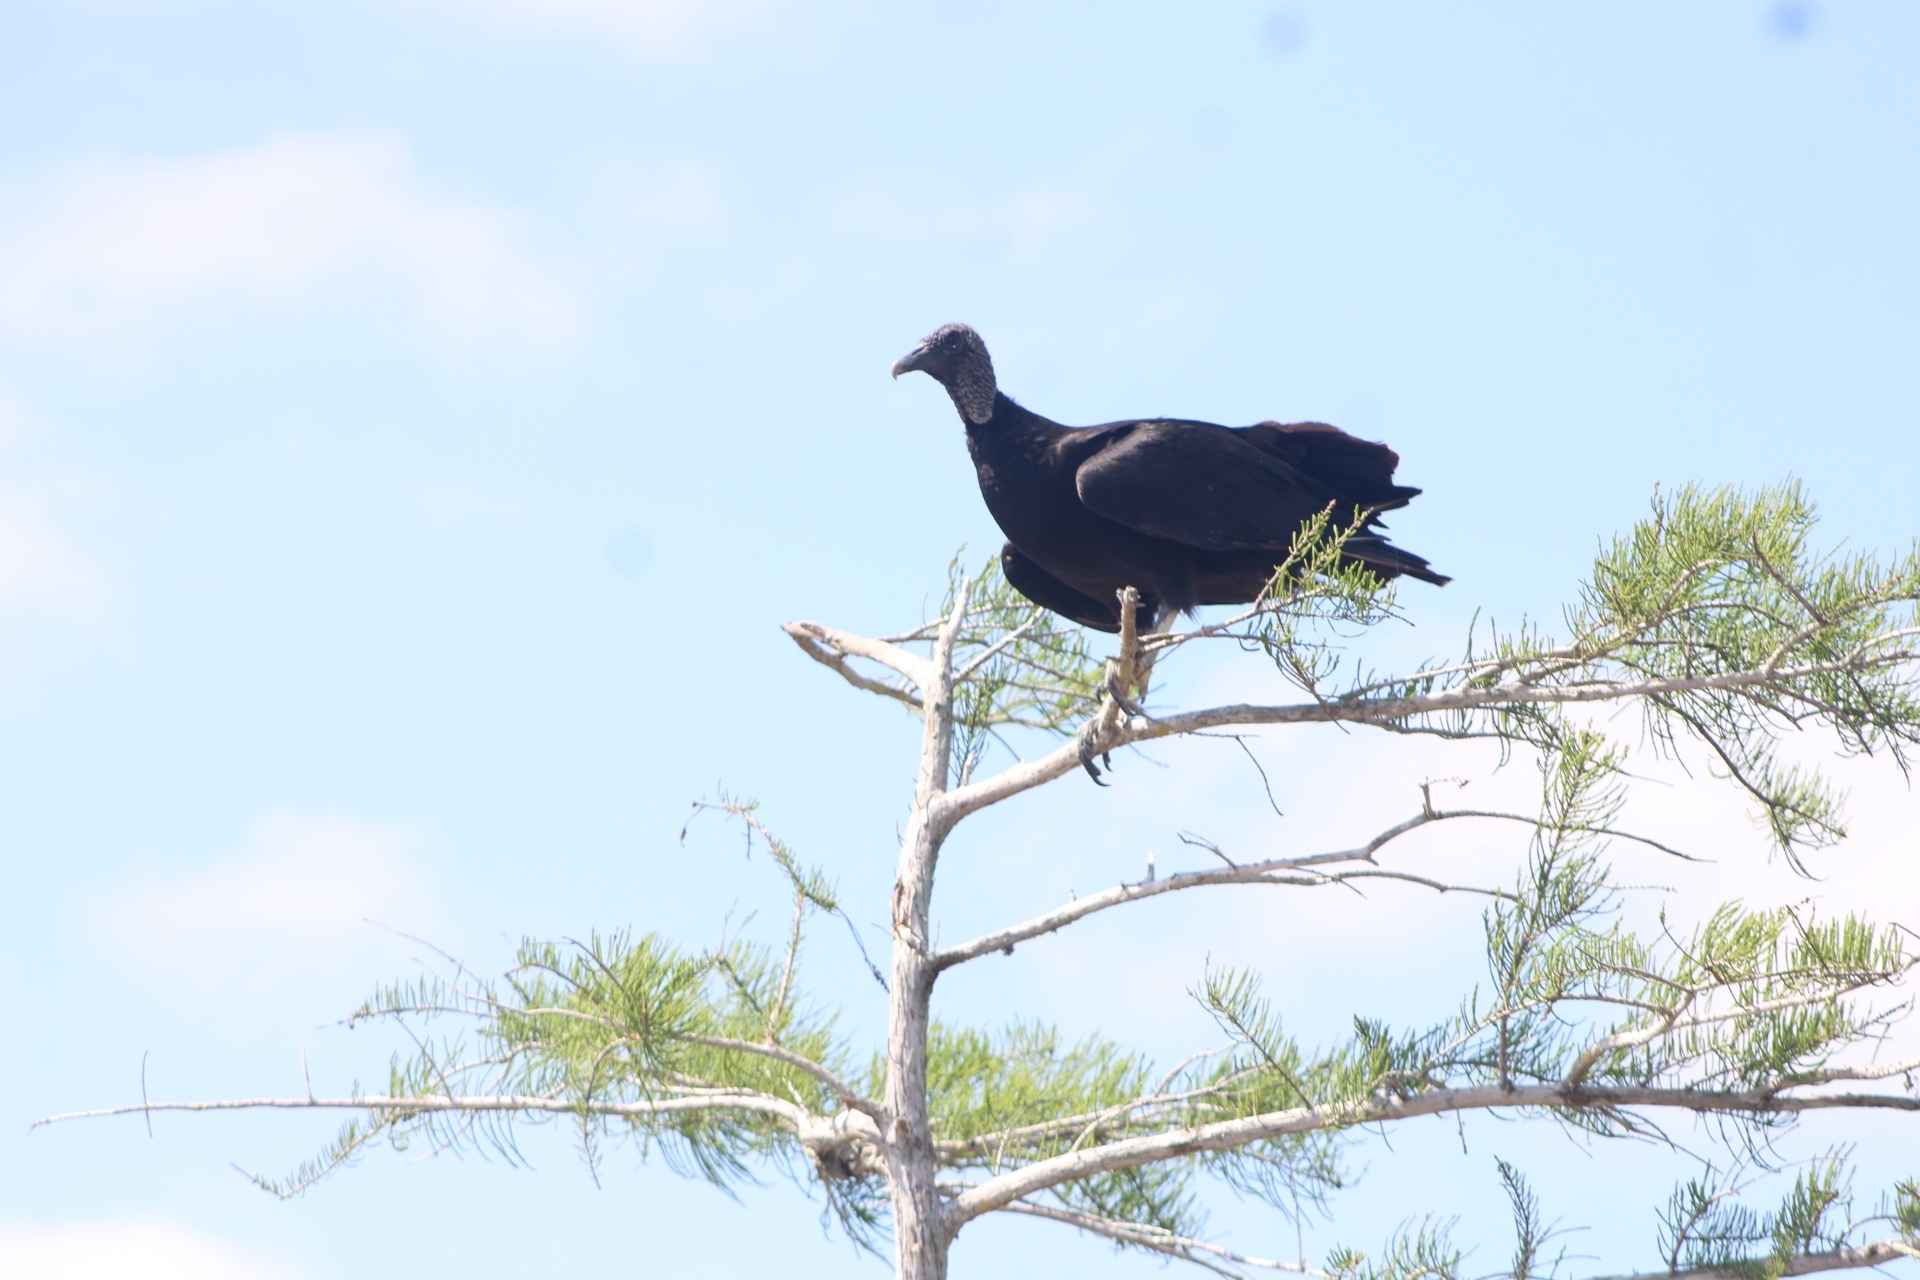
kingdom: Animalia
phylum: Chordata
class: Aves
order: Accipitriformes
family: Cathartidae
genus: Coragyps
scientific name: Coragyps atratus
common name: Black vulture
